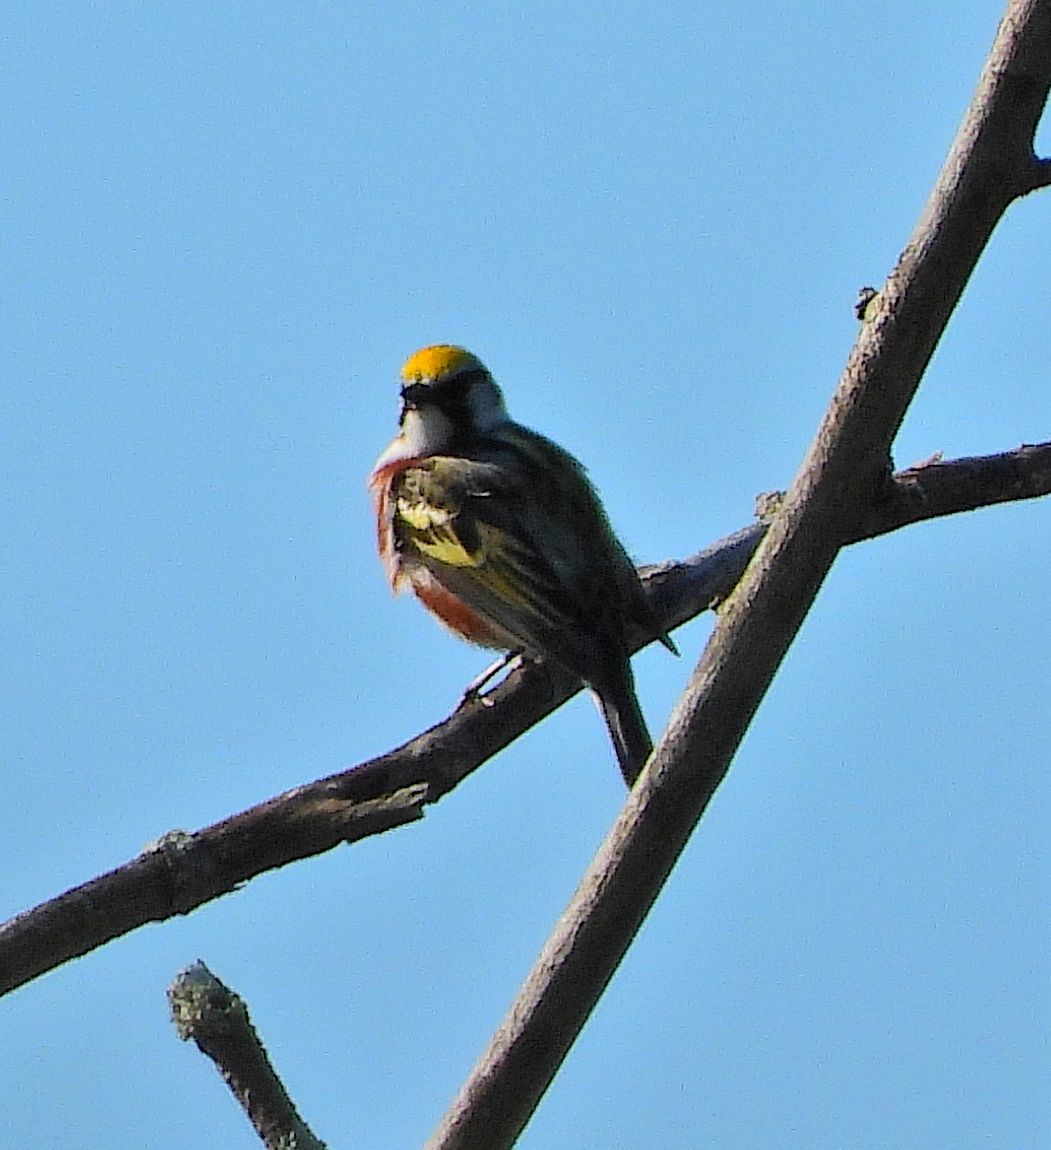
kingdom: Animalia
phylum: Chordata
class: Aves
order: Passeriformes
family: Parulidae
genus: Setophaga
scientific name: Setophaga pensylvanica
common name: Chestnut-sided warbler
